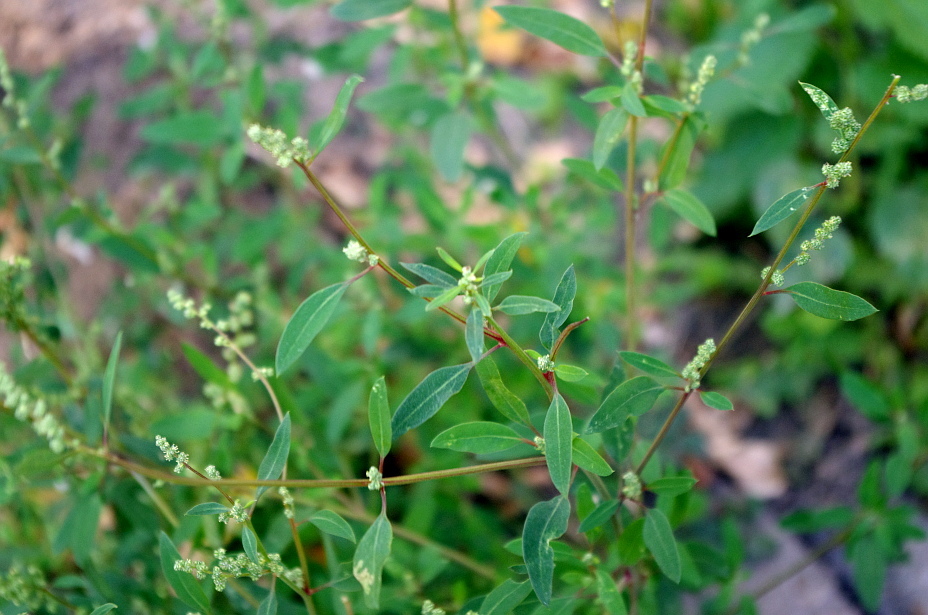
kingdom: Plantae
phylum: Tracheophyta
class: Magnoliopsida
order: Caryophyllales
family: Amaranthaceae
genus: Chenopodium
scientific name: Chenopodium betaceum
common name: Striped goosefoot
